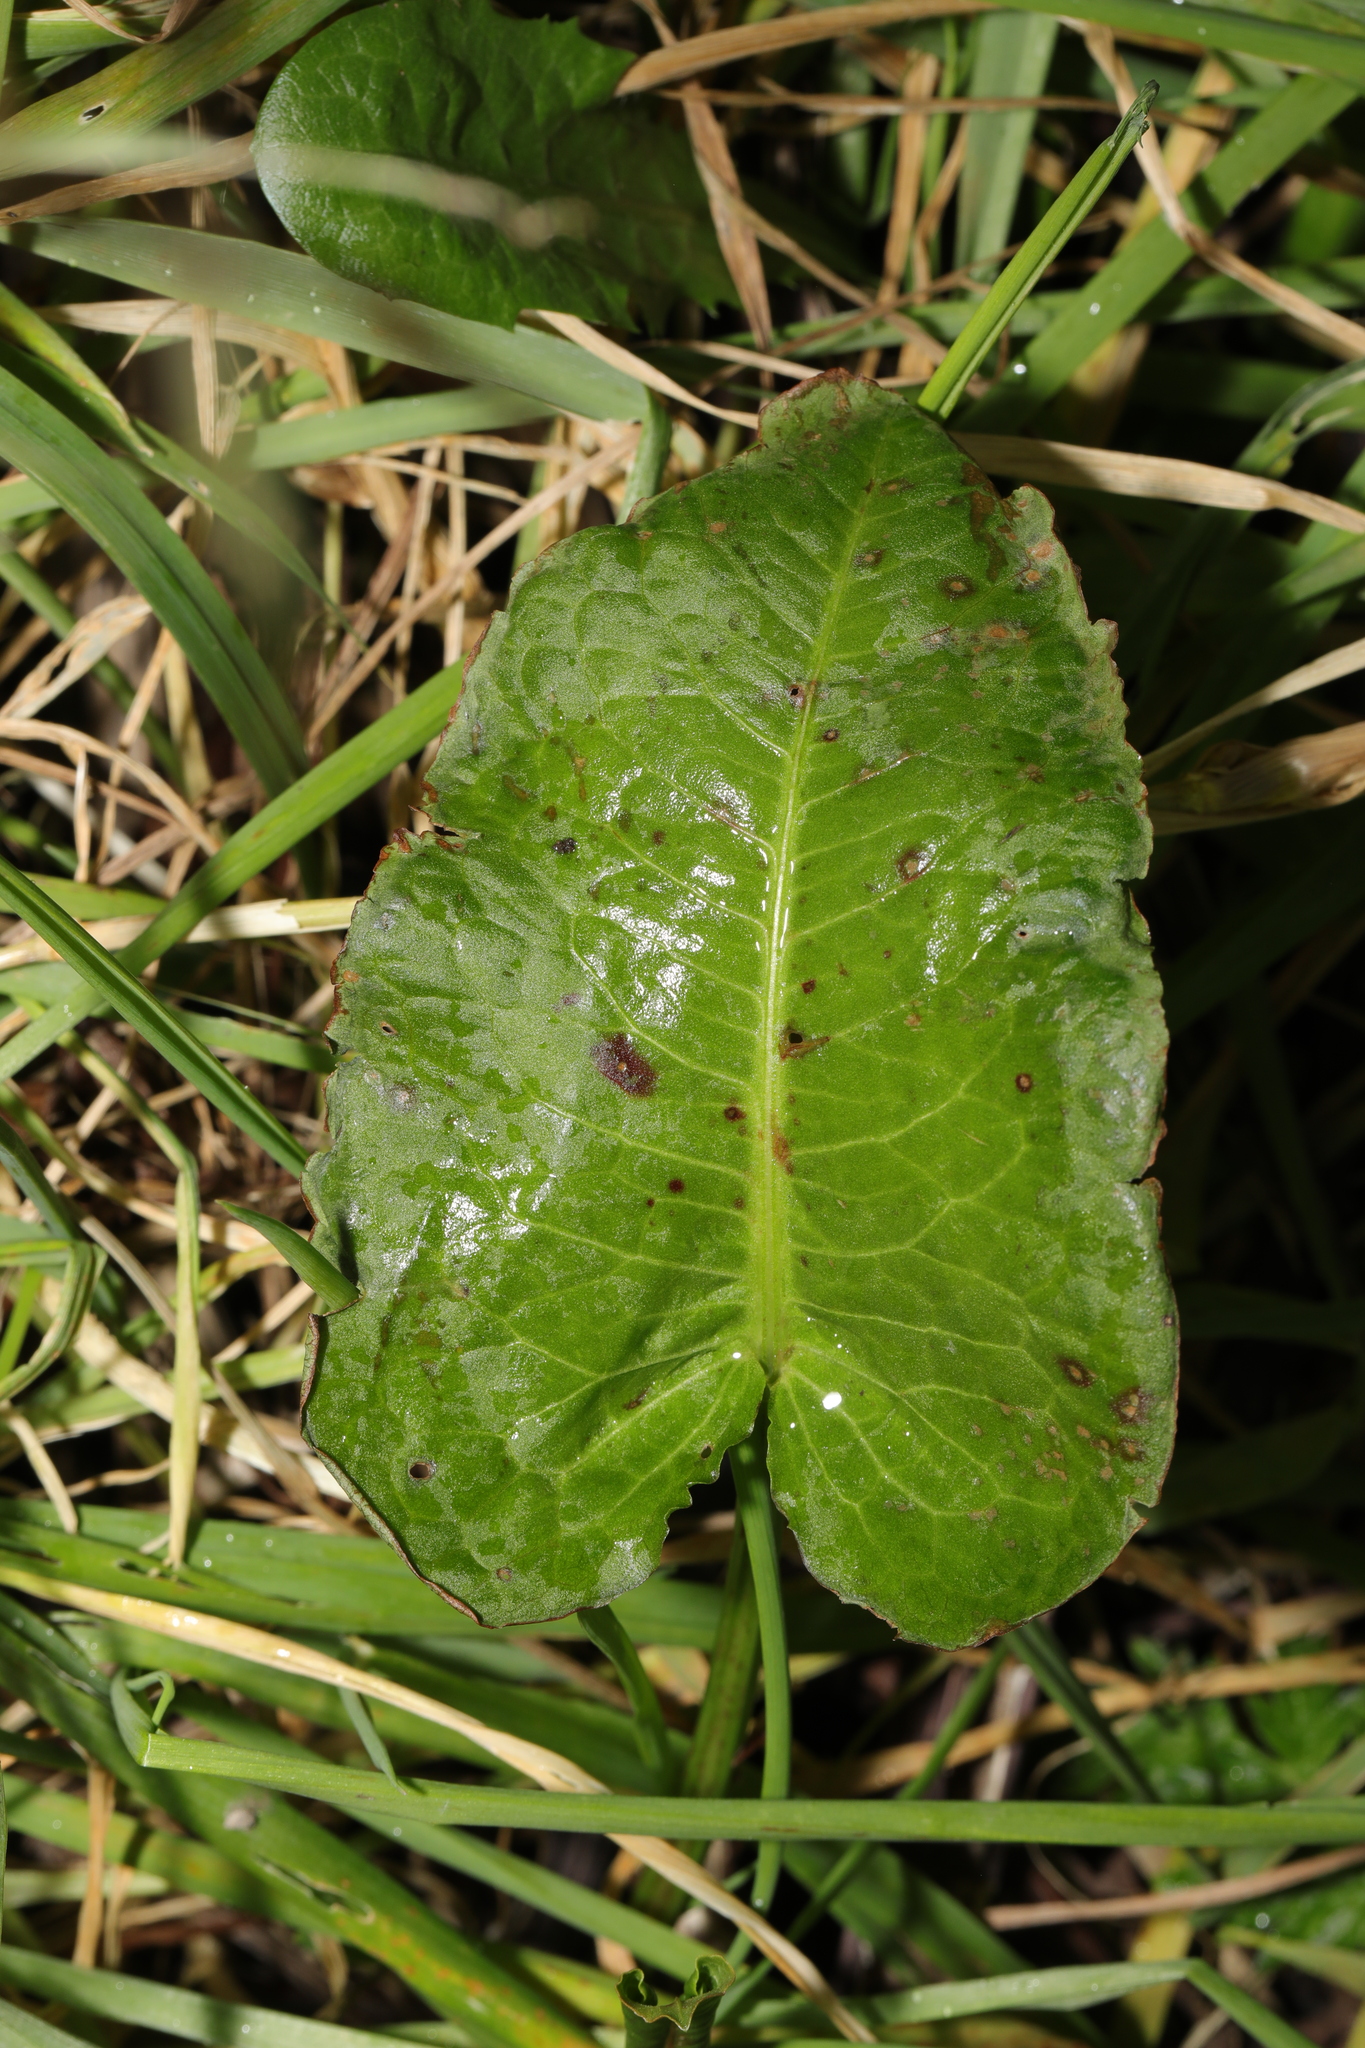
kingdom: Plantae
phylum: Tracheophyta
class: Magnoliopsida
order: Caryophyllales
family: Polygonaceae
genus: Rumex
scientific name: Rumex obtusifolius
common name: Bitter dock
